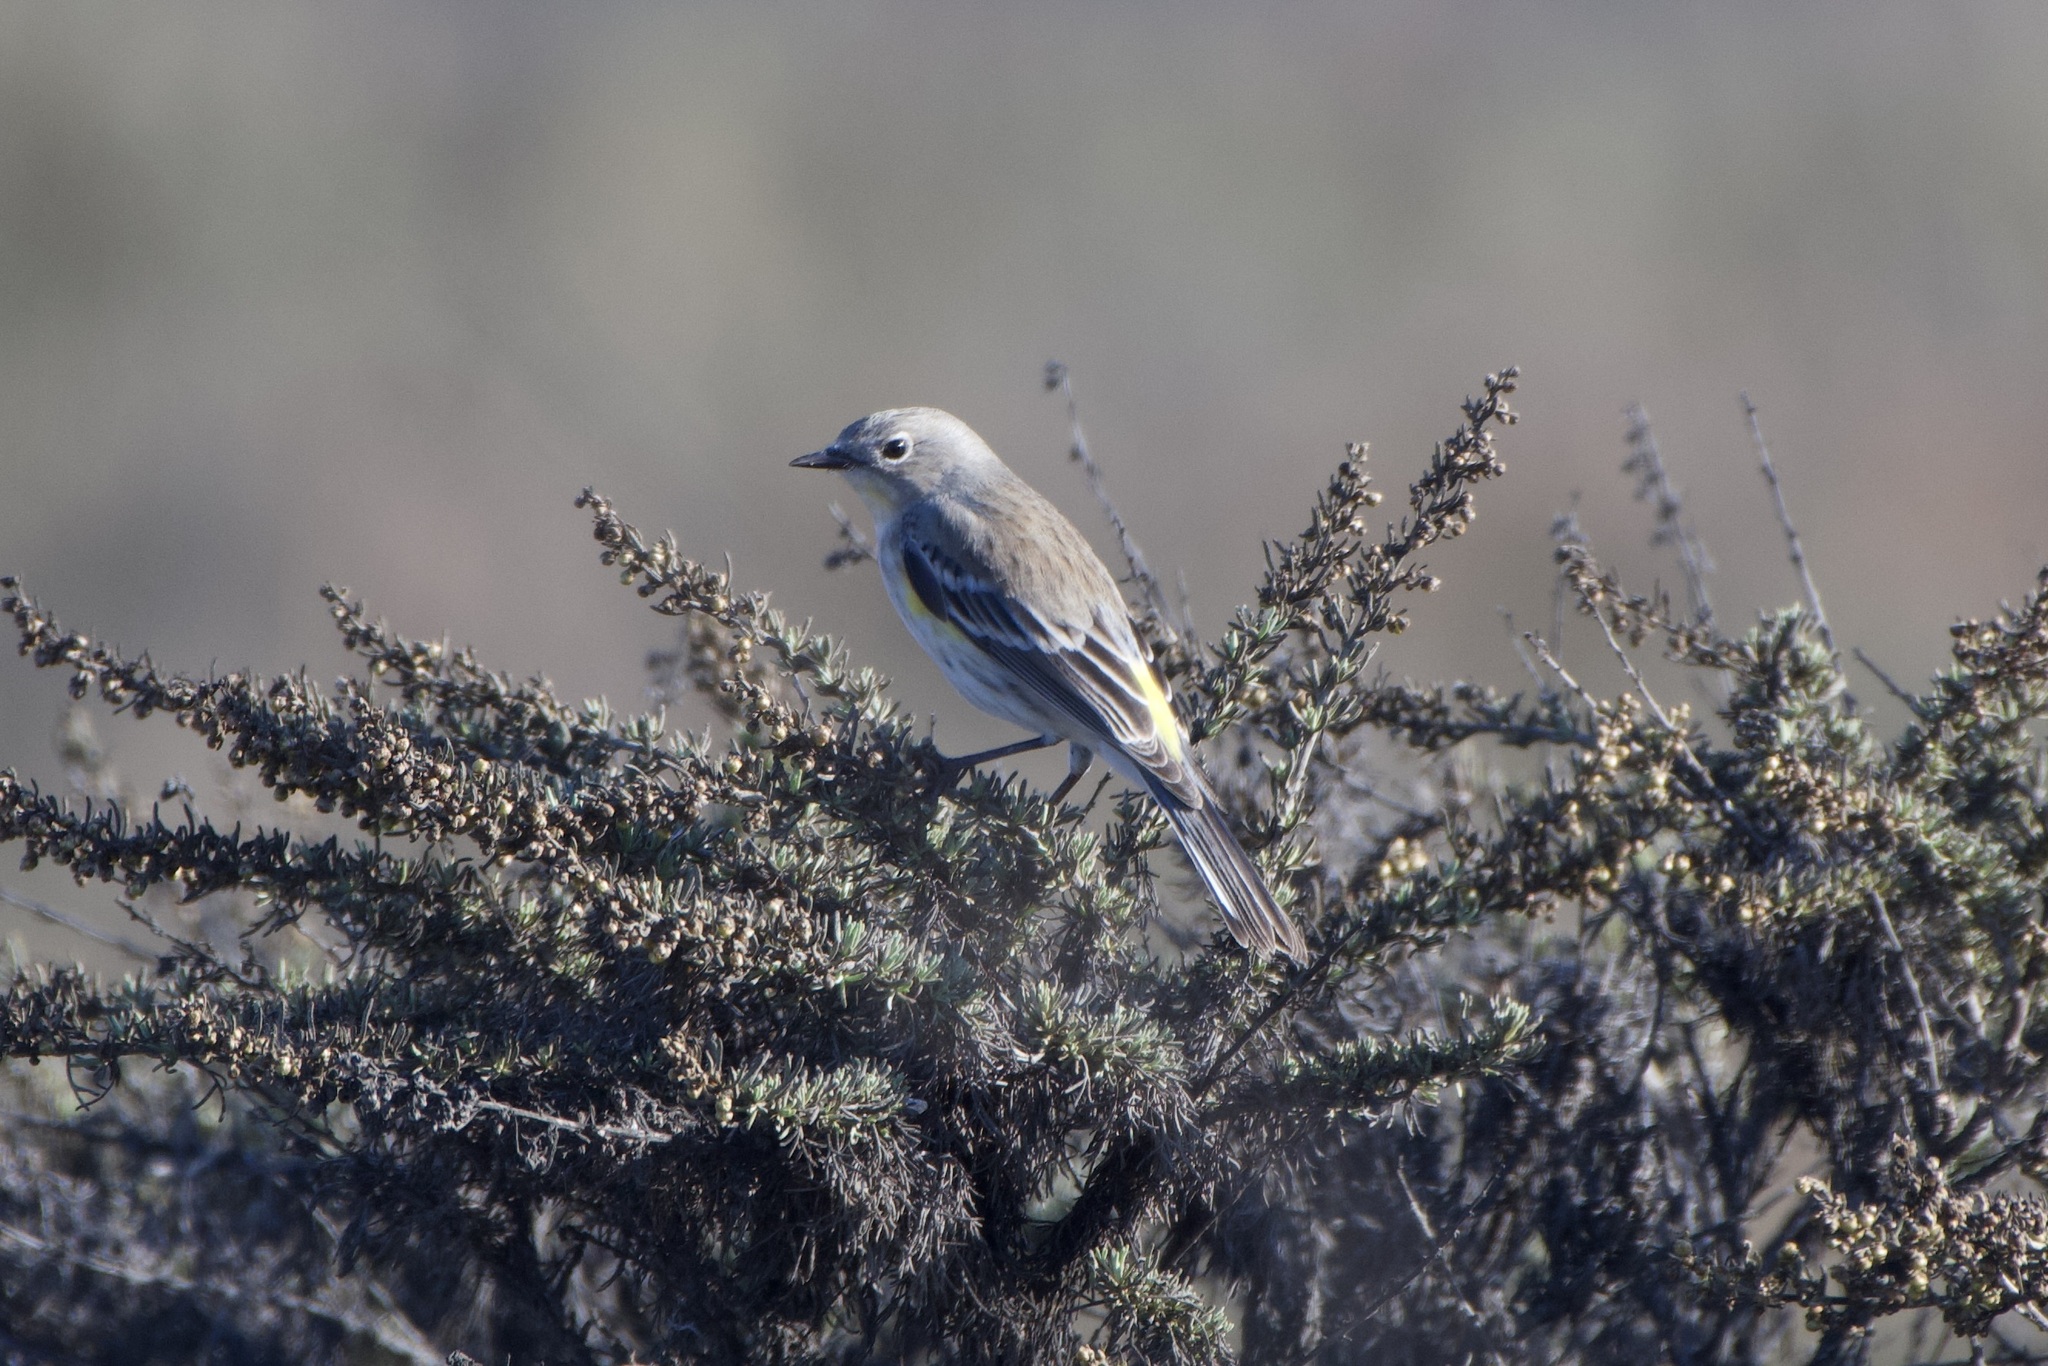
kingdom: Animalia
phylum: Chordata
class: Aves
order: Passeriformes
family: Parulidae
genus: Setophaga
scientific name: Setophaga coronata
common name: Myrtle warbler
